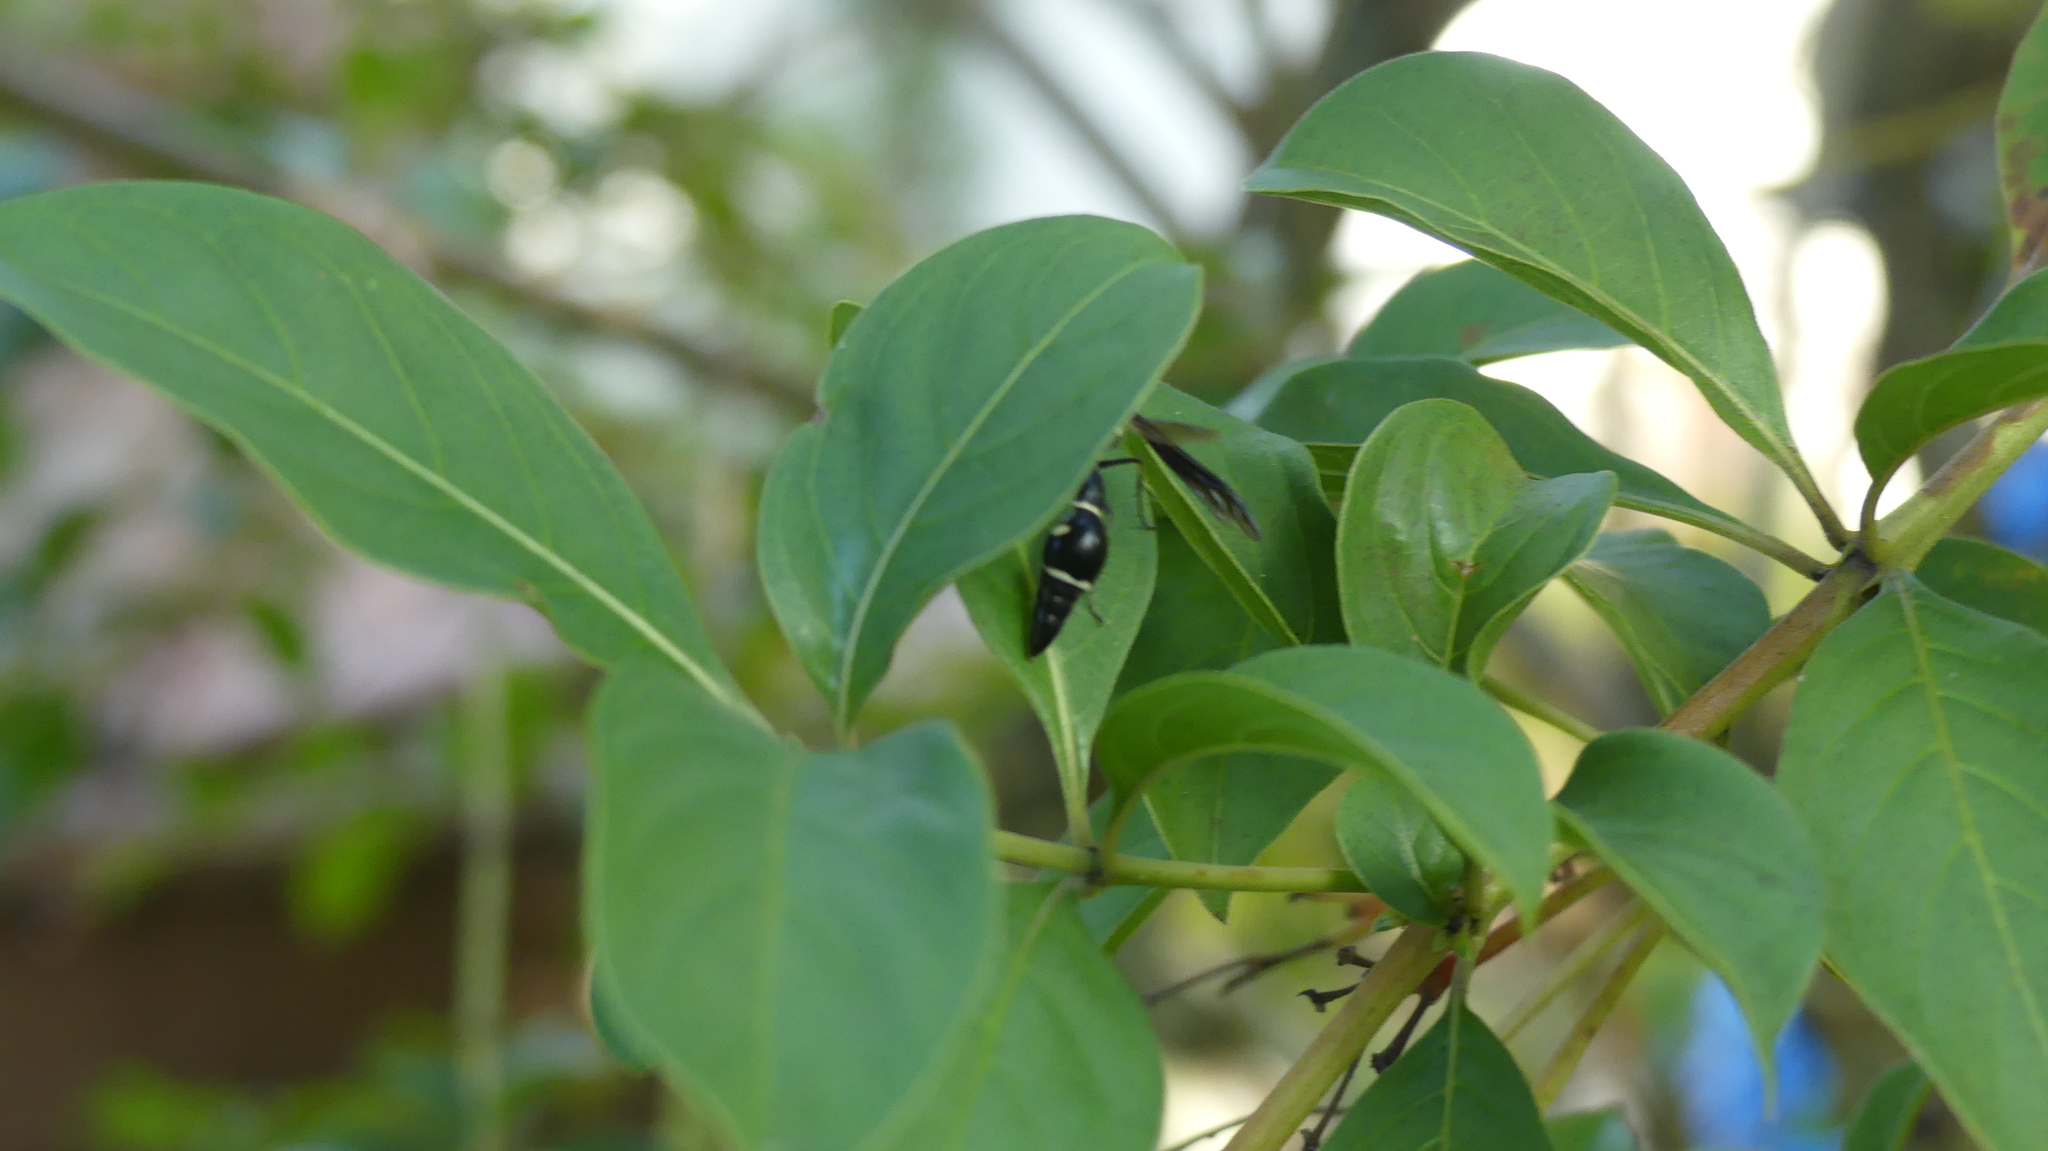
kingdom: Animalia
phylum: Arthropoda
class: Insecta
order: Hymenoptera
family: Vespidae
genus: Eumenes
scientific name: Eumenes fraternus
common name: Fraternal potter wasp
